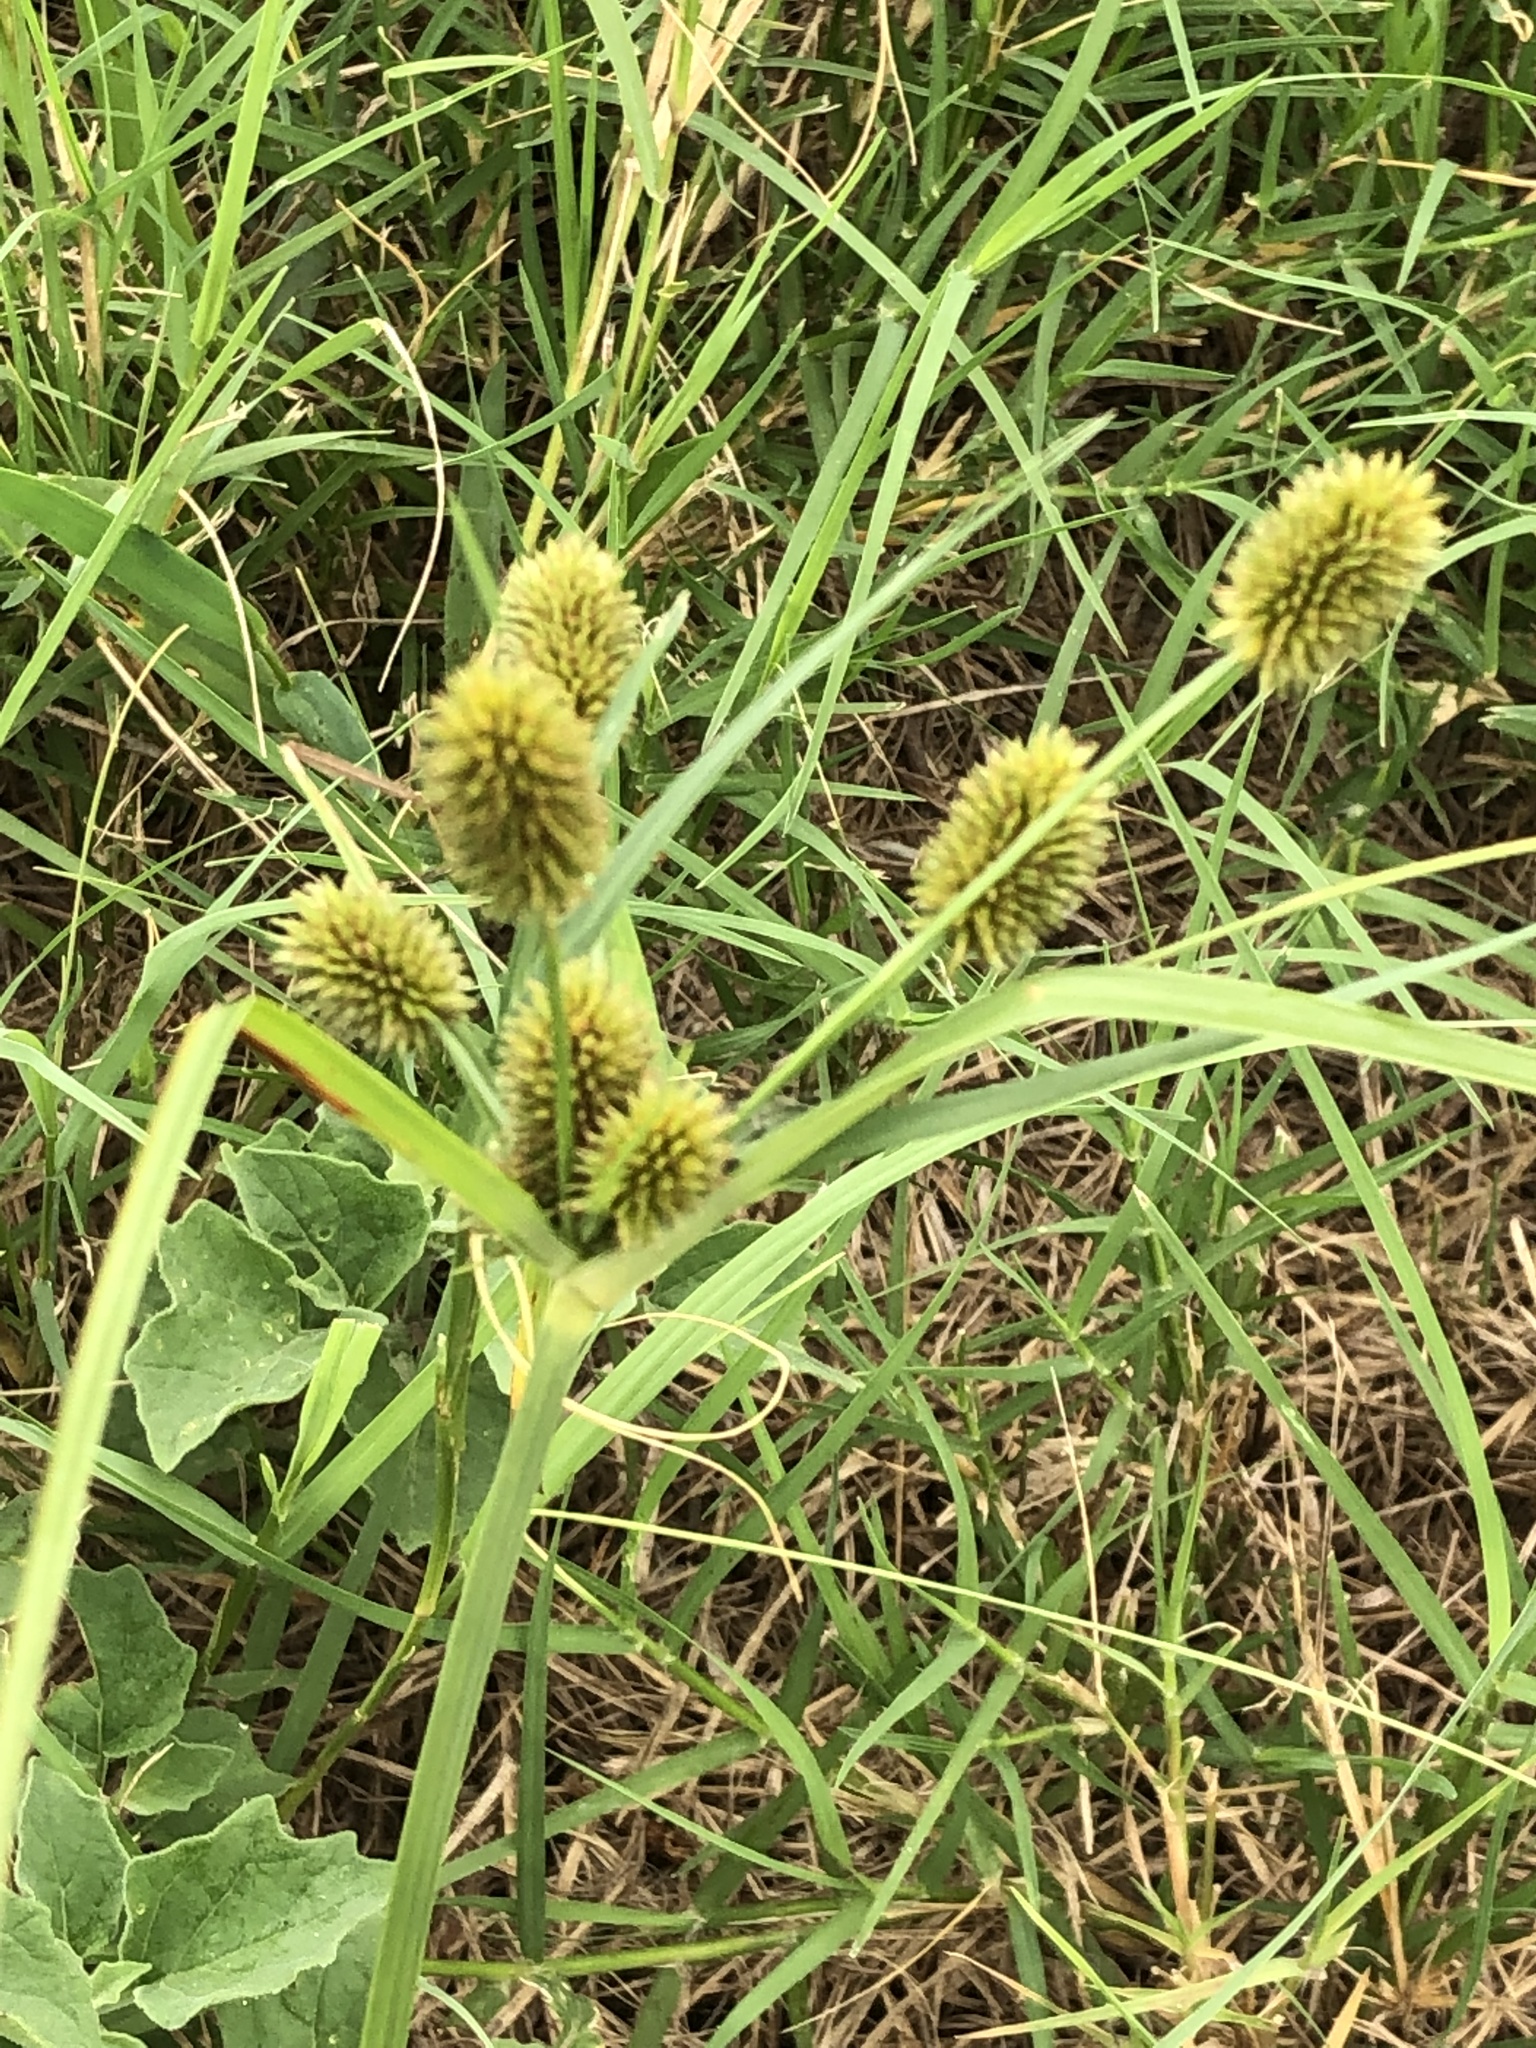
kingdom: Plantae
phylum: Tracheophyta
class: Liliopsida
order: Poales
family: Cyperaceae
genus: Cyperus
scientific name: Cyperus retrorsus
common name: Pinebarren flat sedge
